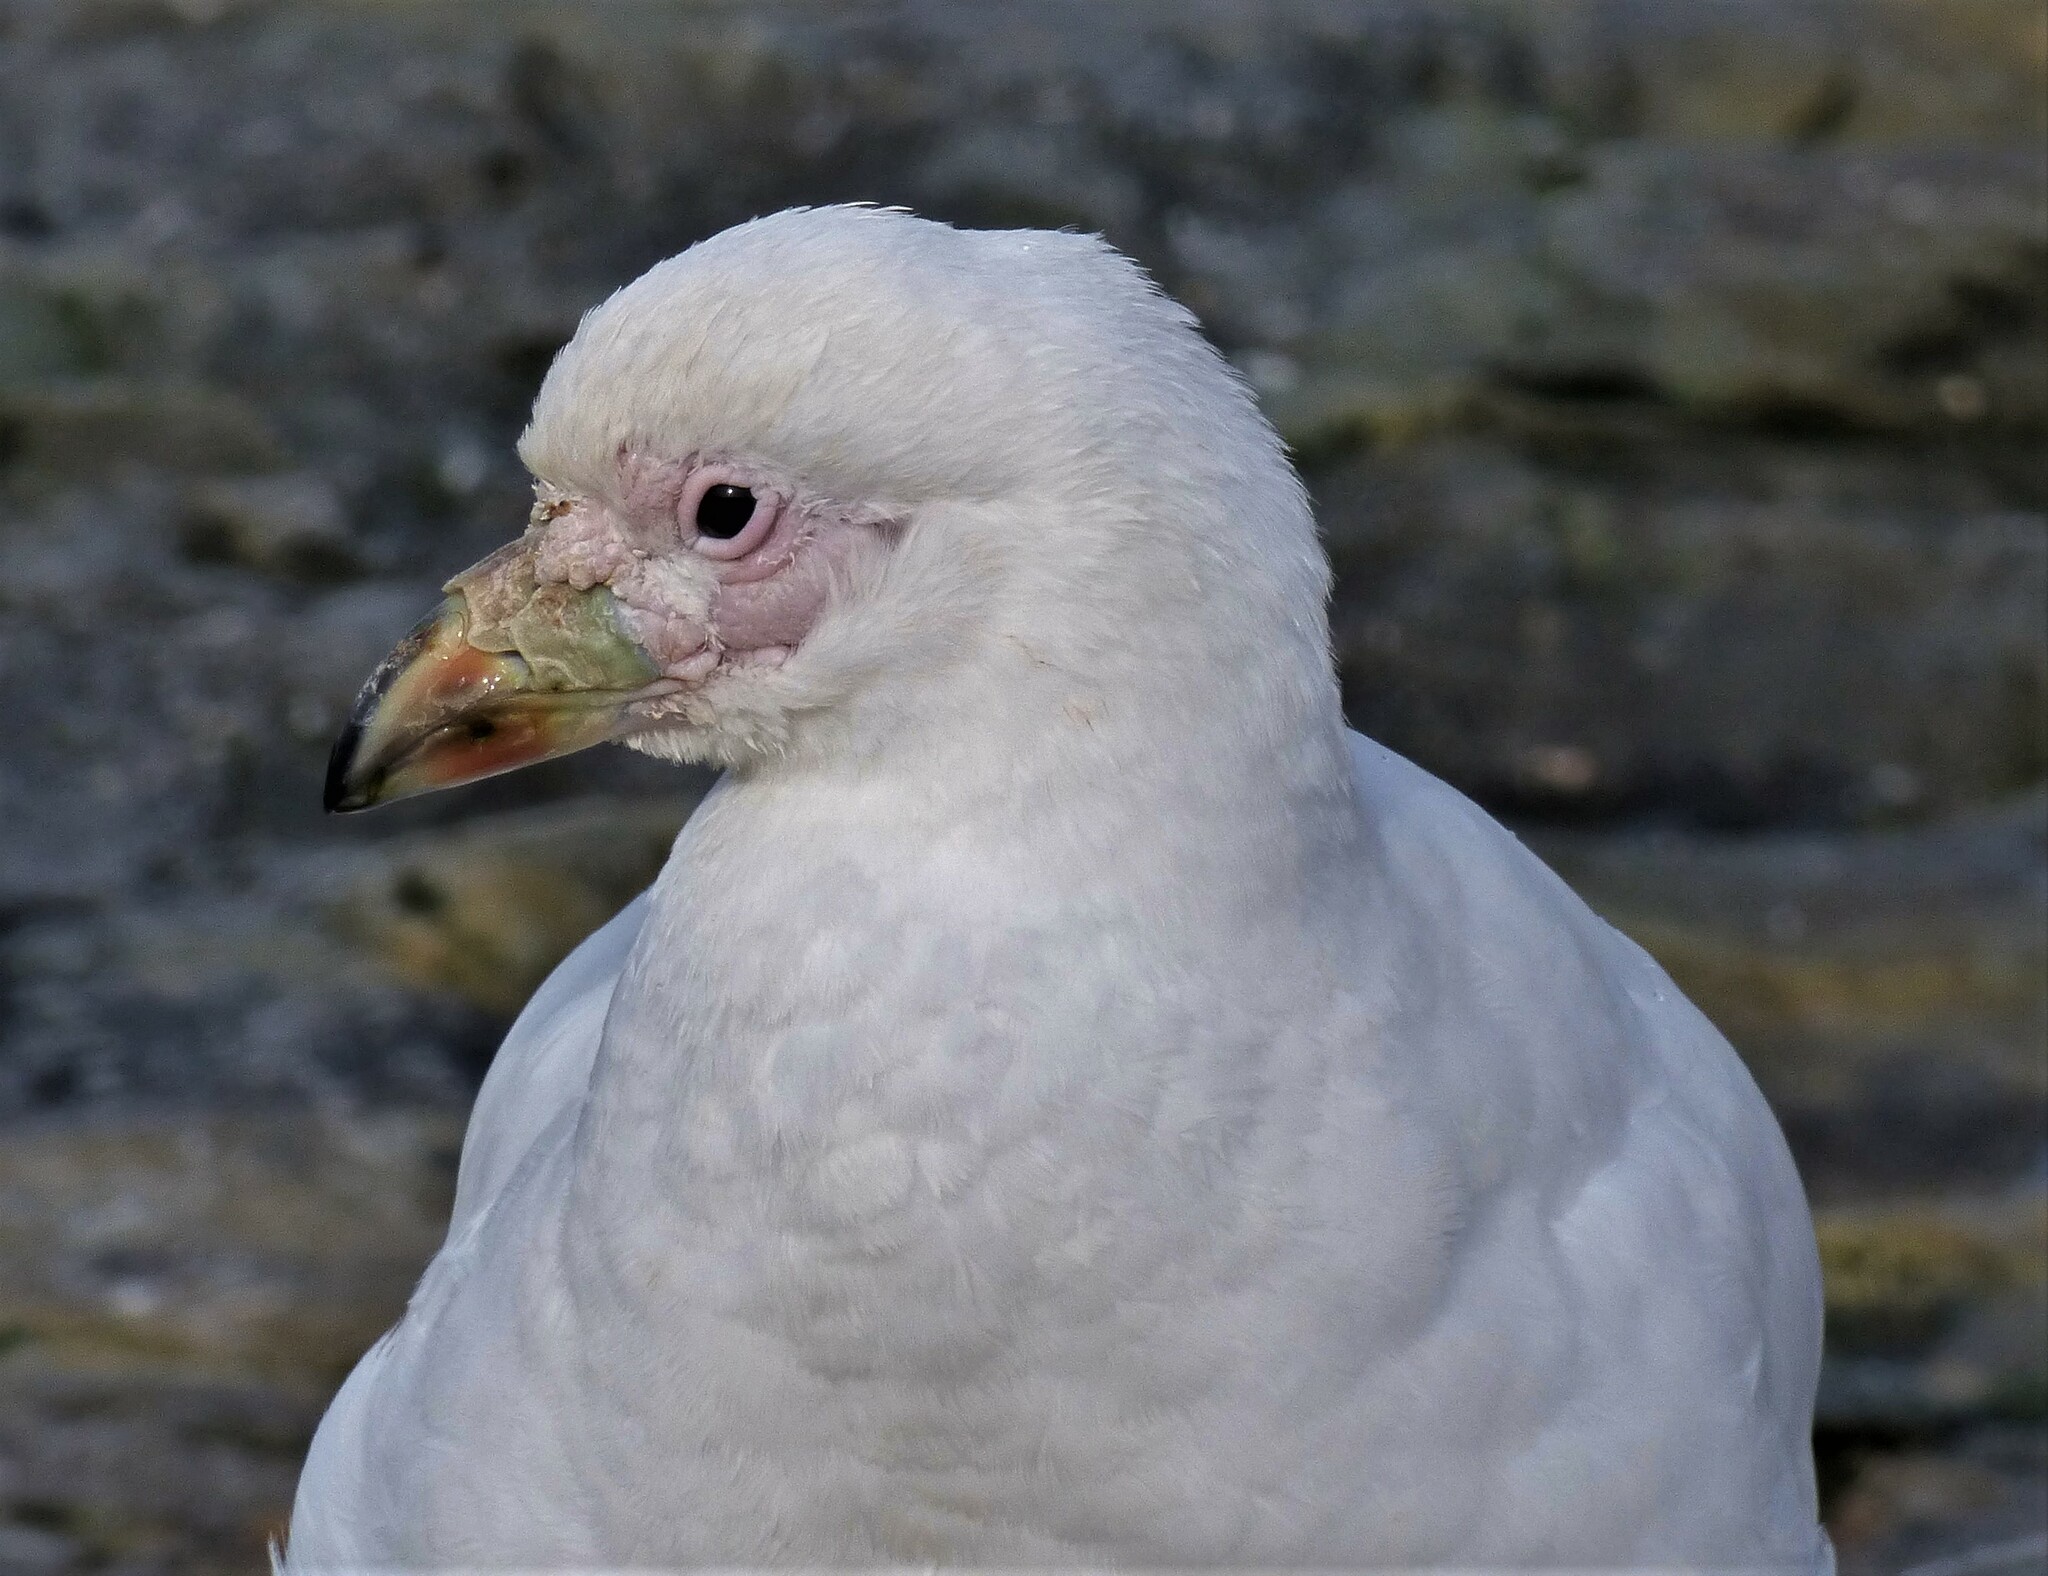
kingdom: Animalia
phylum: Chordata
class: Aves
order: Charadriiformes
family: Chionidae
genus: Chionis
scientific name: Chionis albus
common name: Snowy sheathbill
